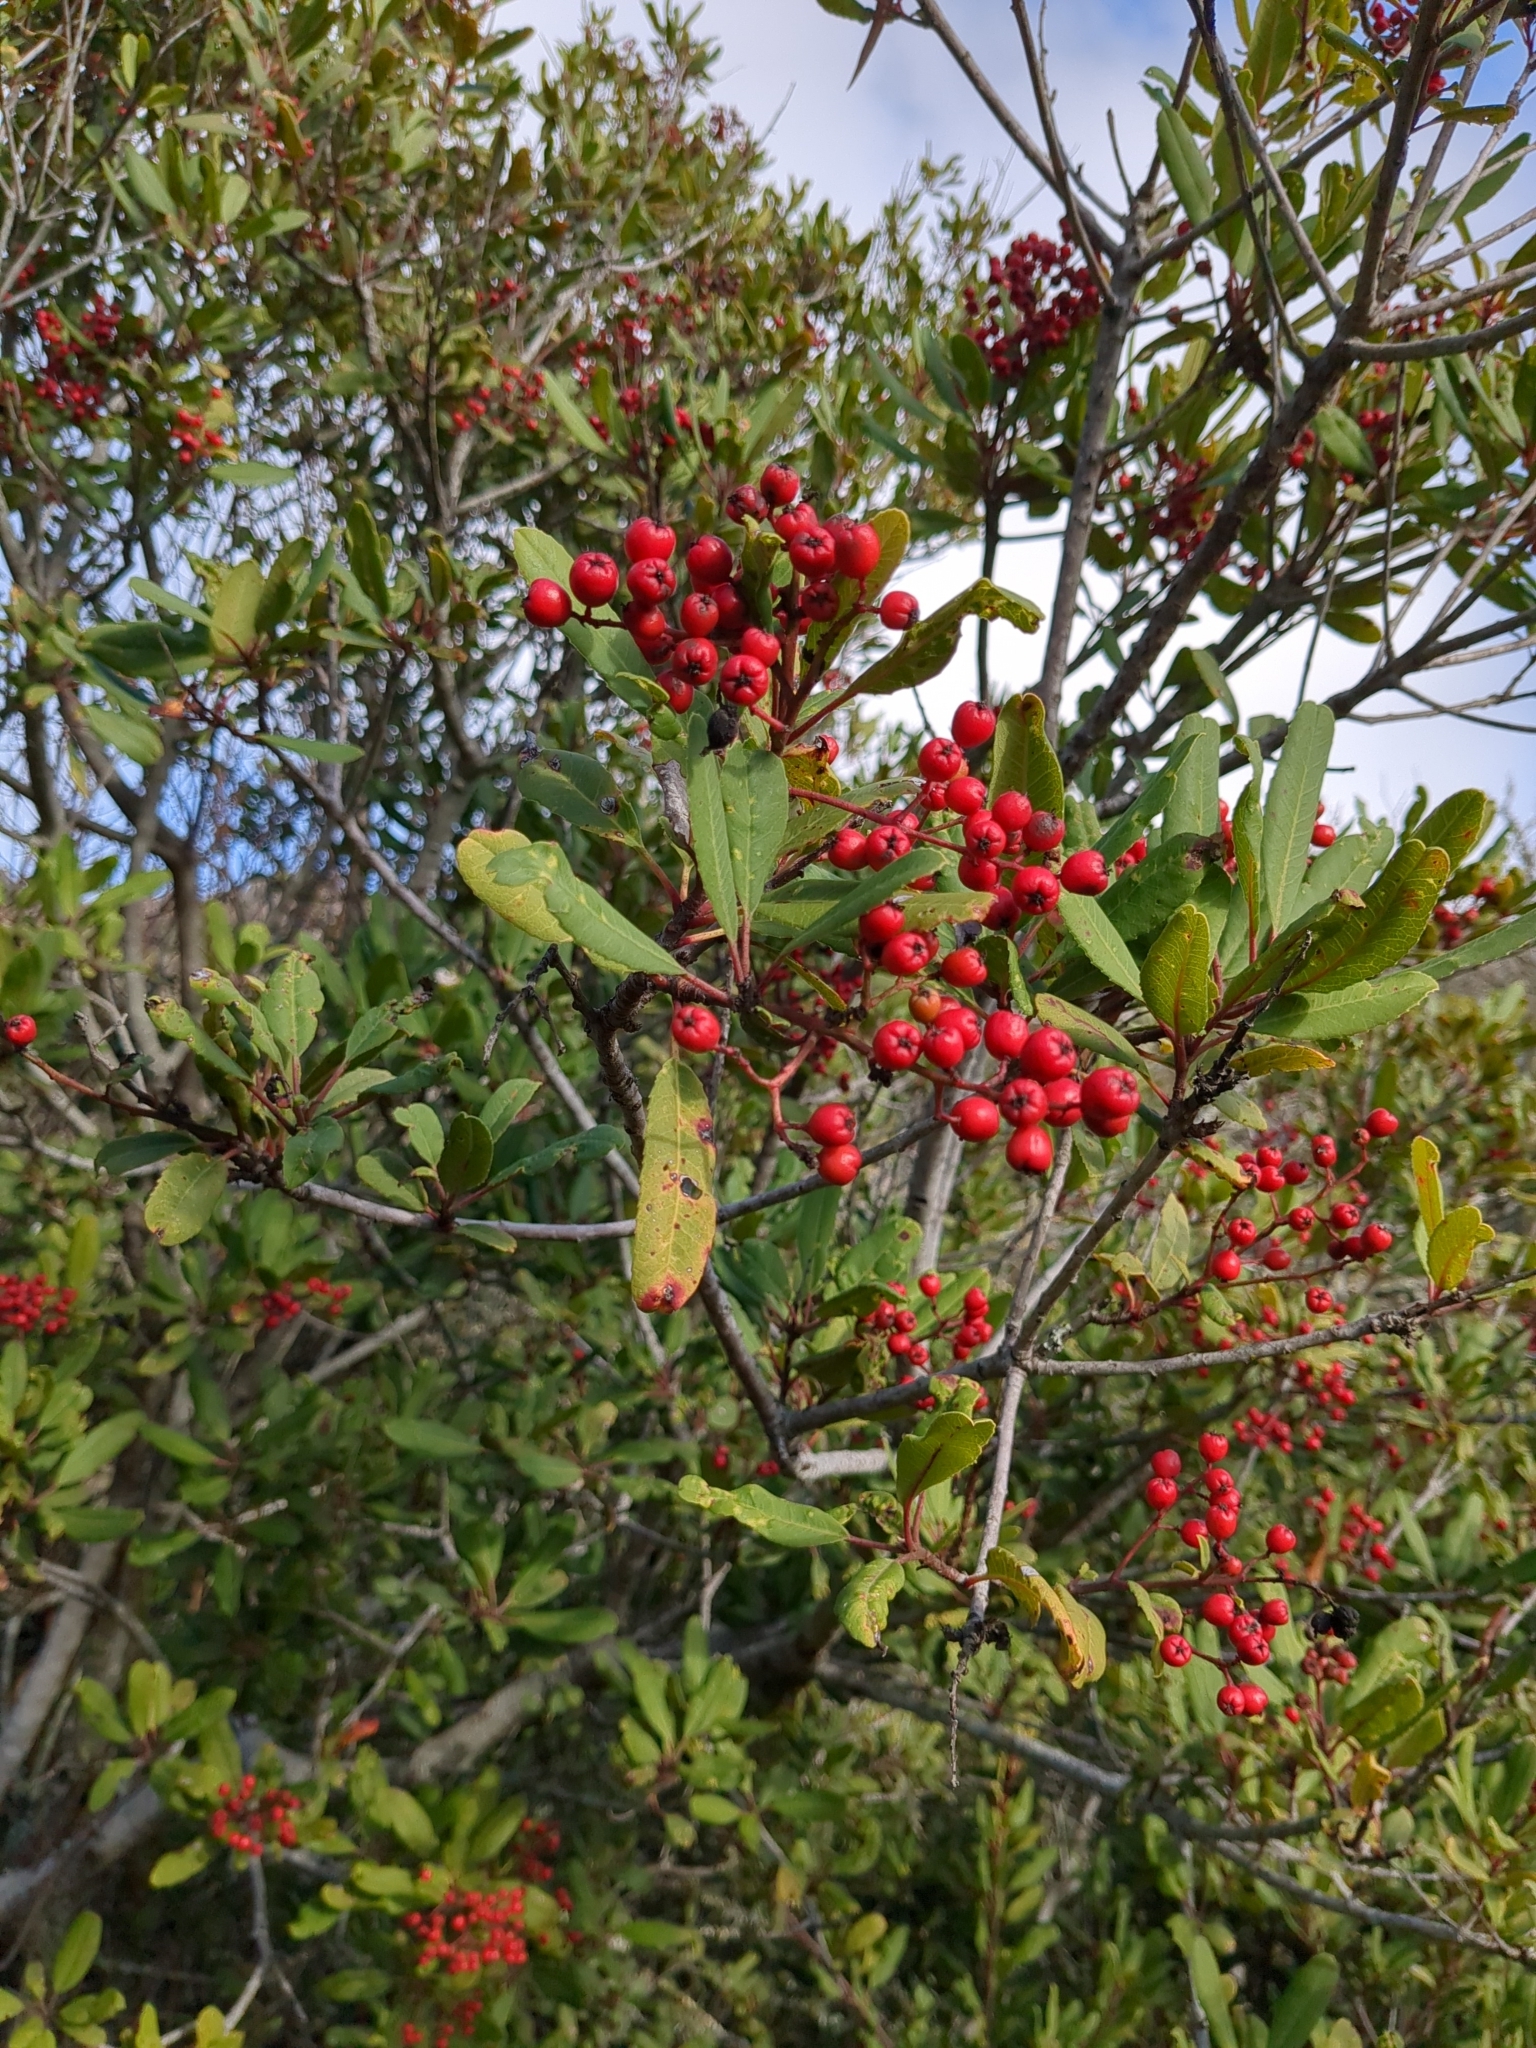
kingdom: Plantae
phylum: Tracheophyta
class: Magnoliopsida
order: Rosales
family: Rosaceae
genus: Heteromeles
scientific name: Heteromeles arbutifolia
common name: California-holly
